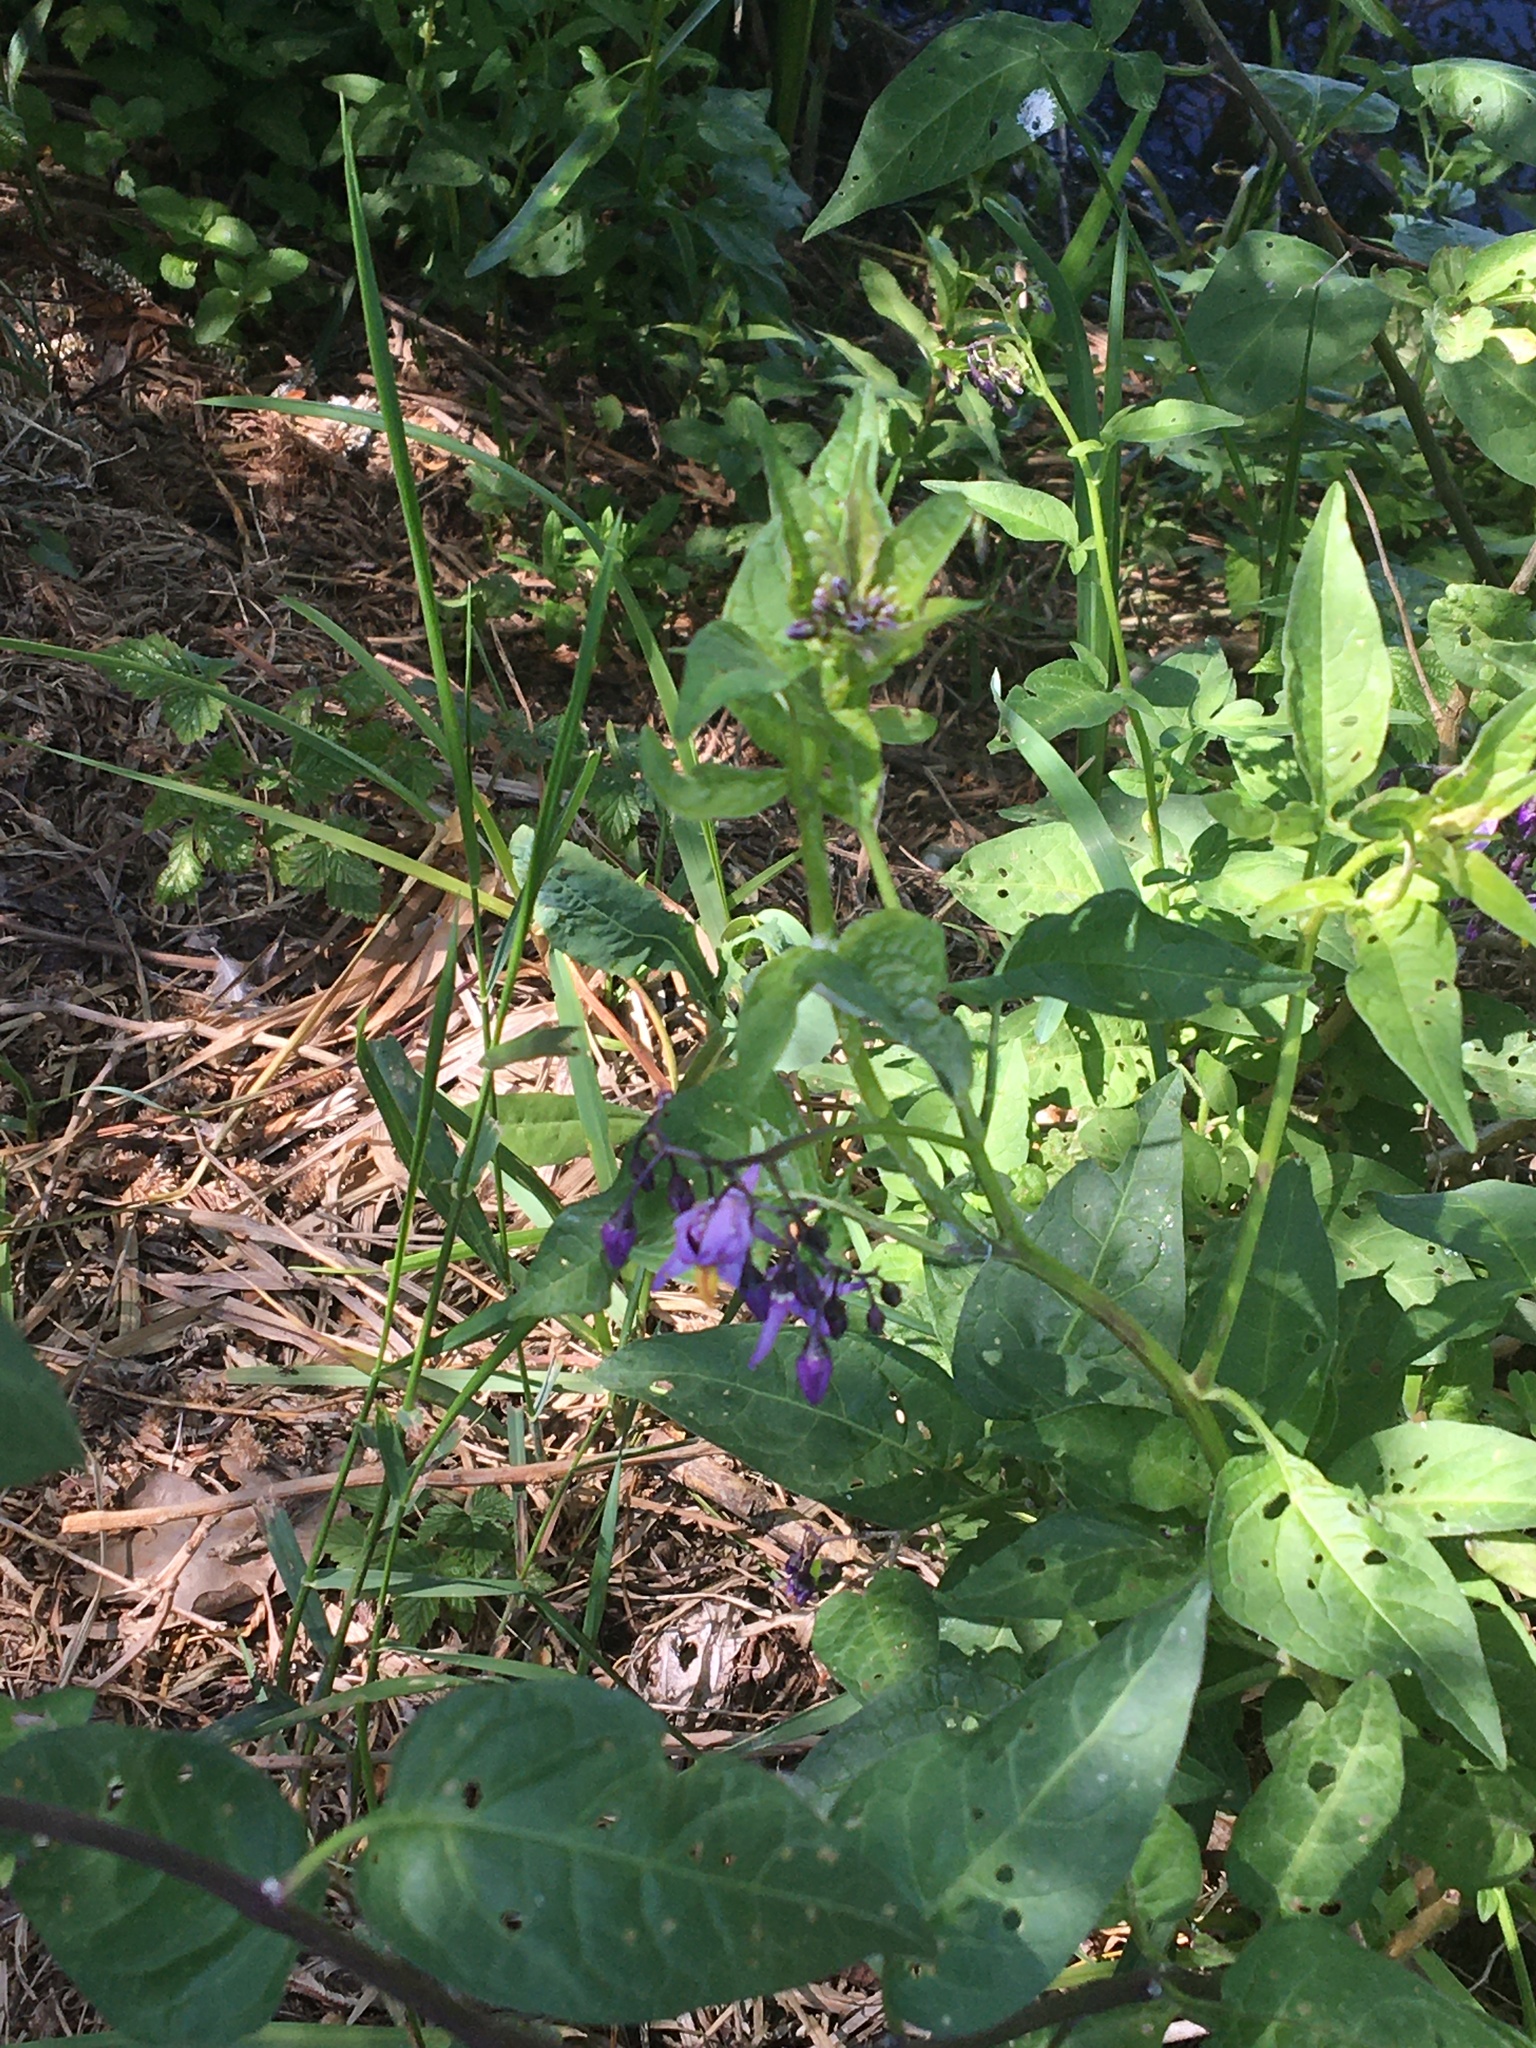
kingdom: Plantae
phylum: Tracheophyta
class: Magnoliopsida
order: Solanales
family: Solanaceae
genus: Solanum
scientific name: Solanum dulcamara
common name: Climbing nightshade
